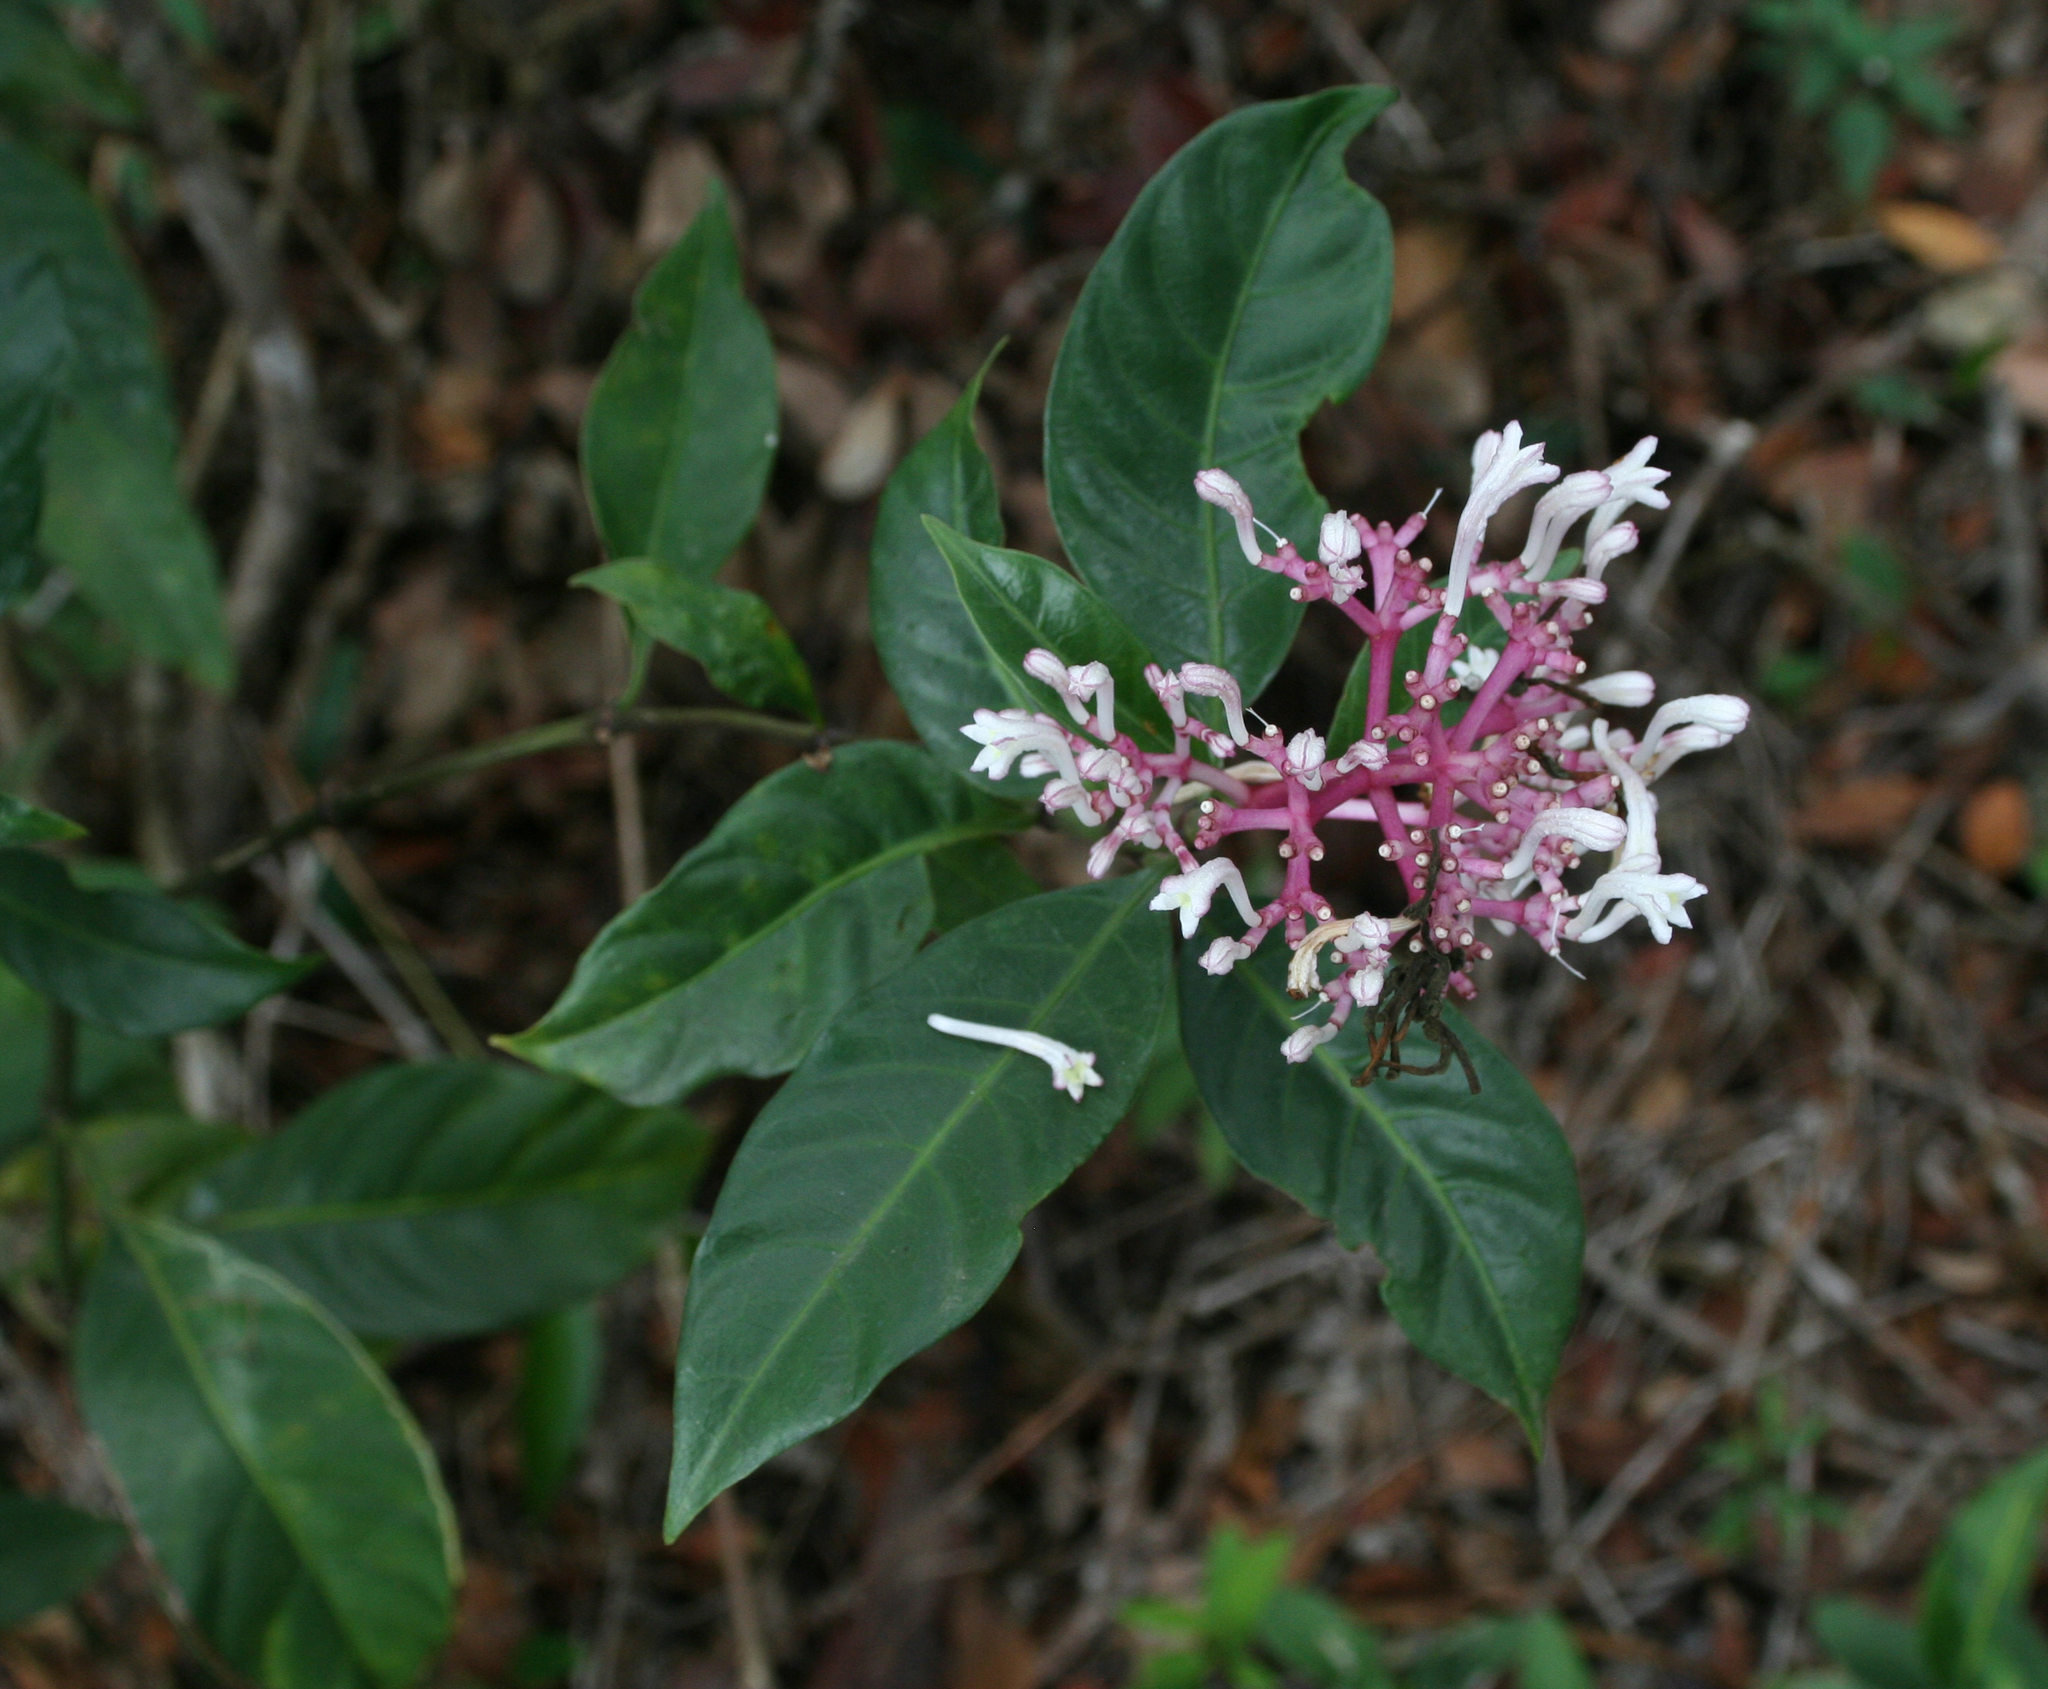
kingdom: Plantae
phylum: Tracheophyta
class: Magnoliopsida
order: Gentianales
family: Rubiaceae
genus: Chassalia
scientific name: Chassalia curviflora
